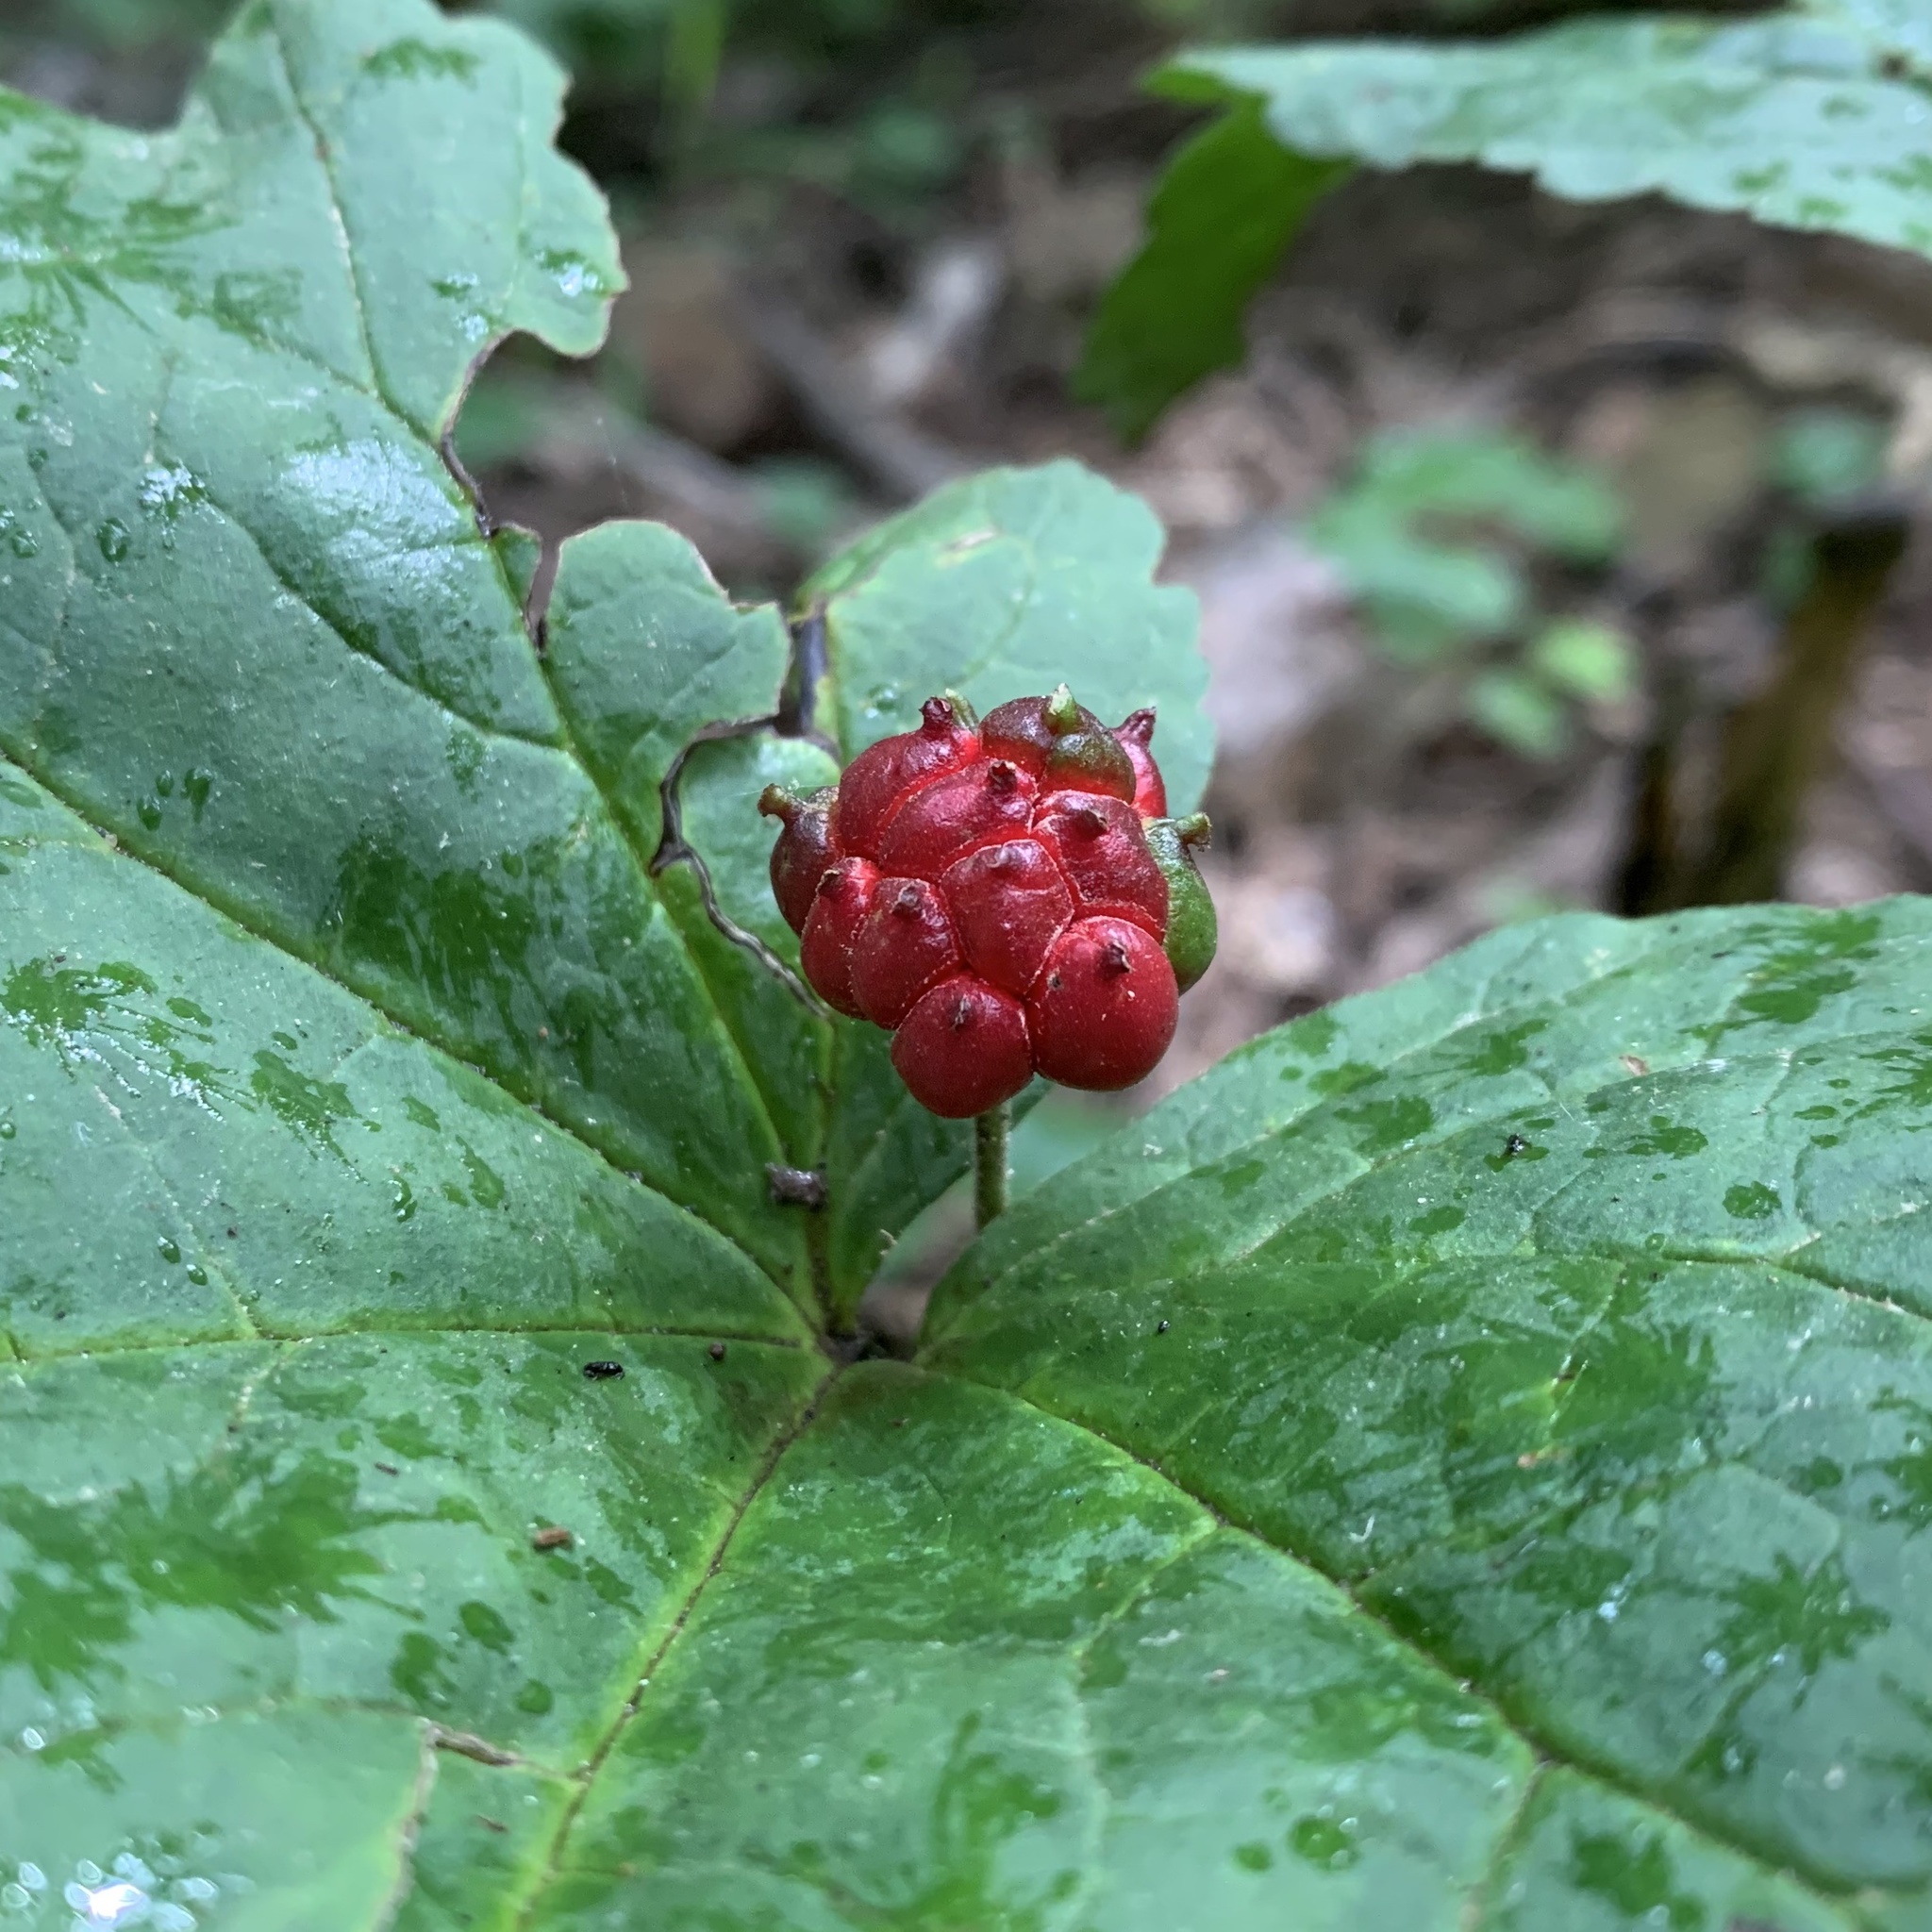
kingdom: Plantae
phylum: Tracheophyta
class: Magnoliopsida
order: Ranunculales
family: Ranunculaceae
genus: Hydrastis
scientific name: Hydrastis canadensis
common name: Goldenseal
